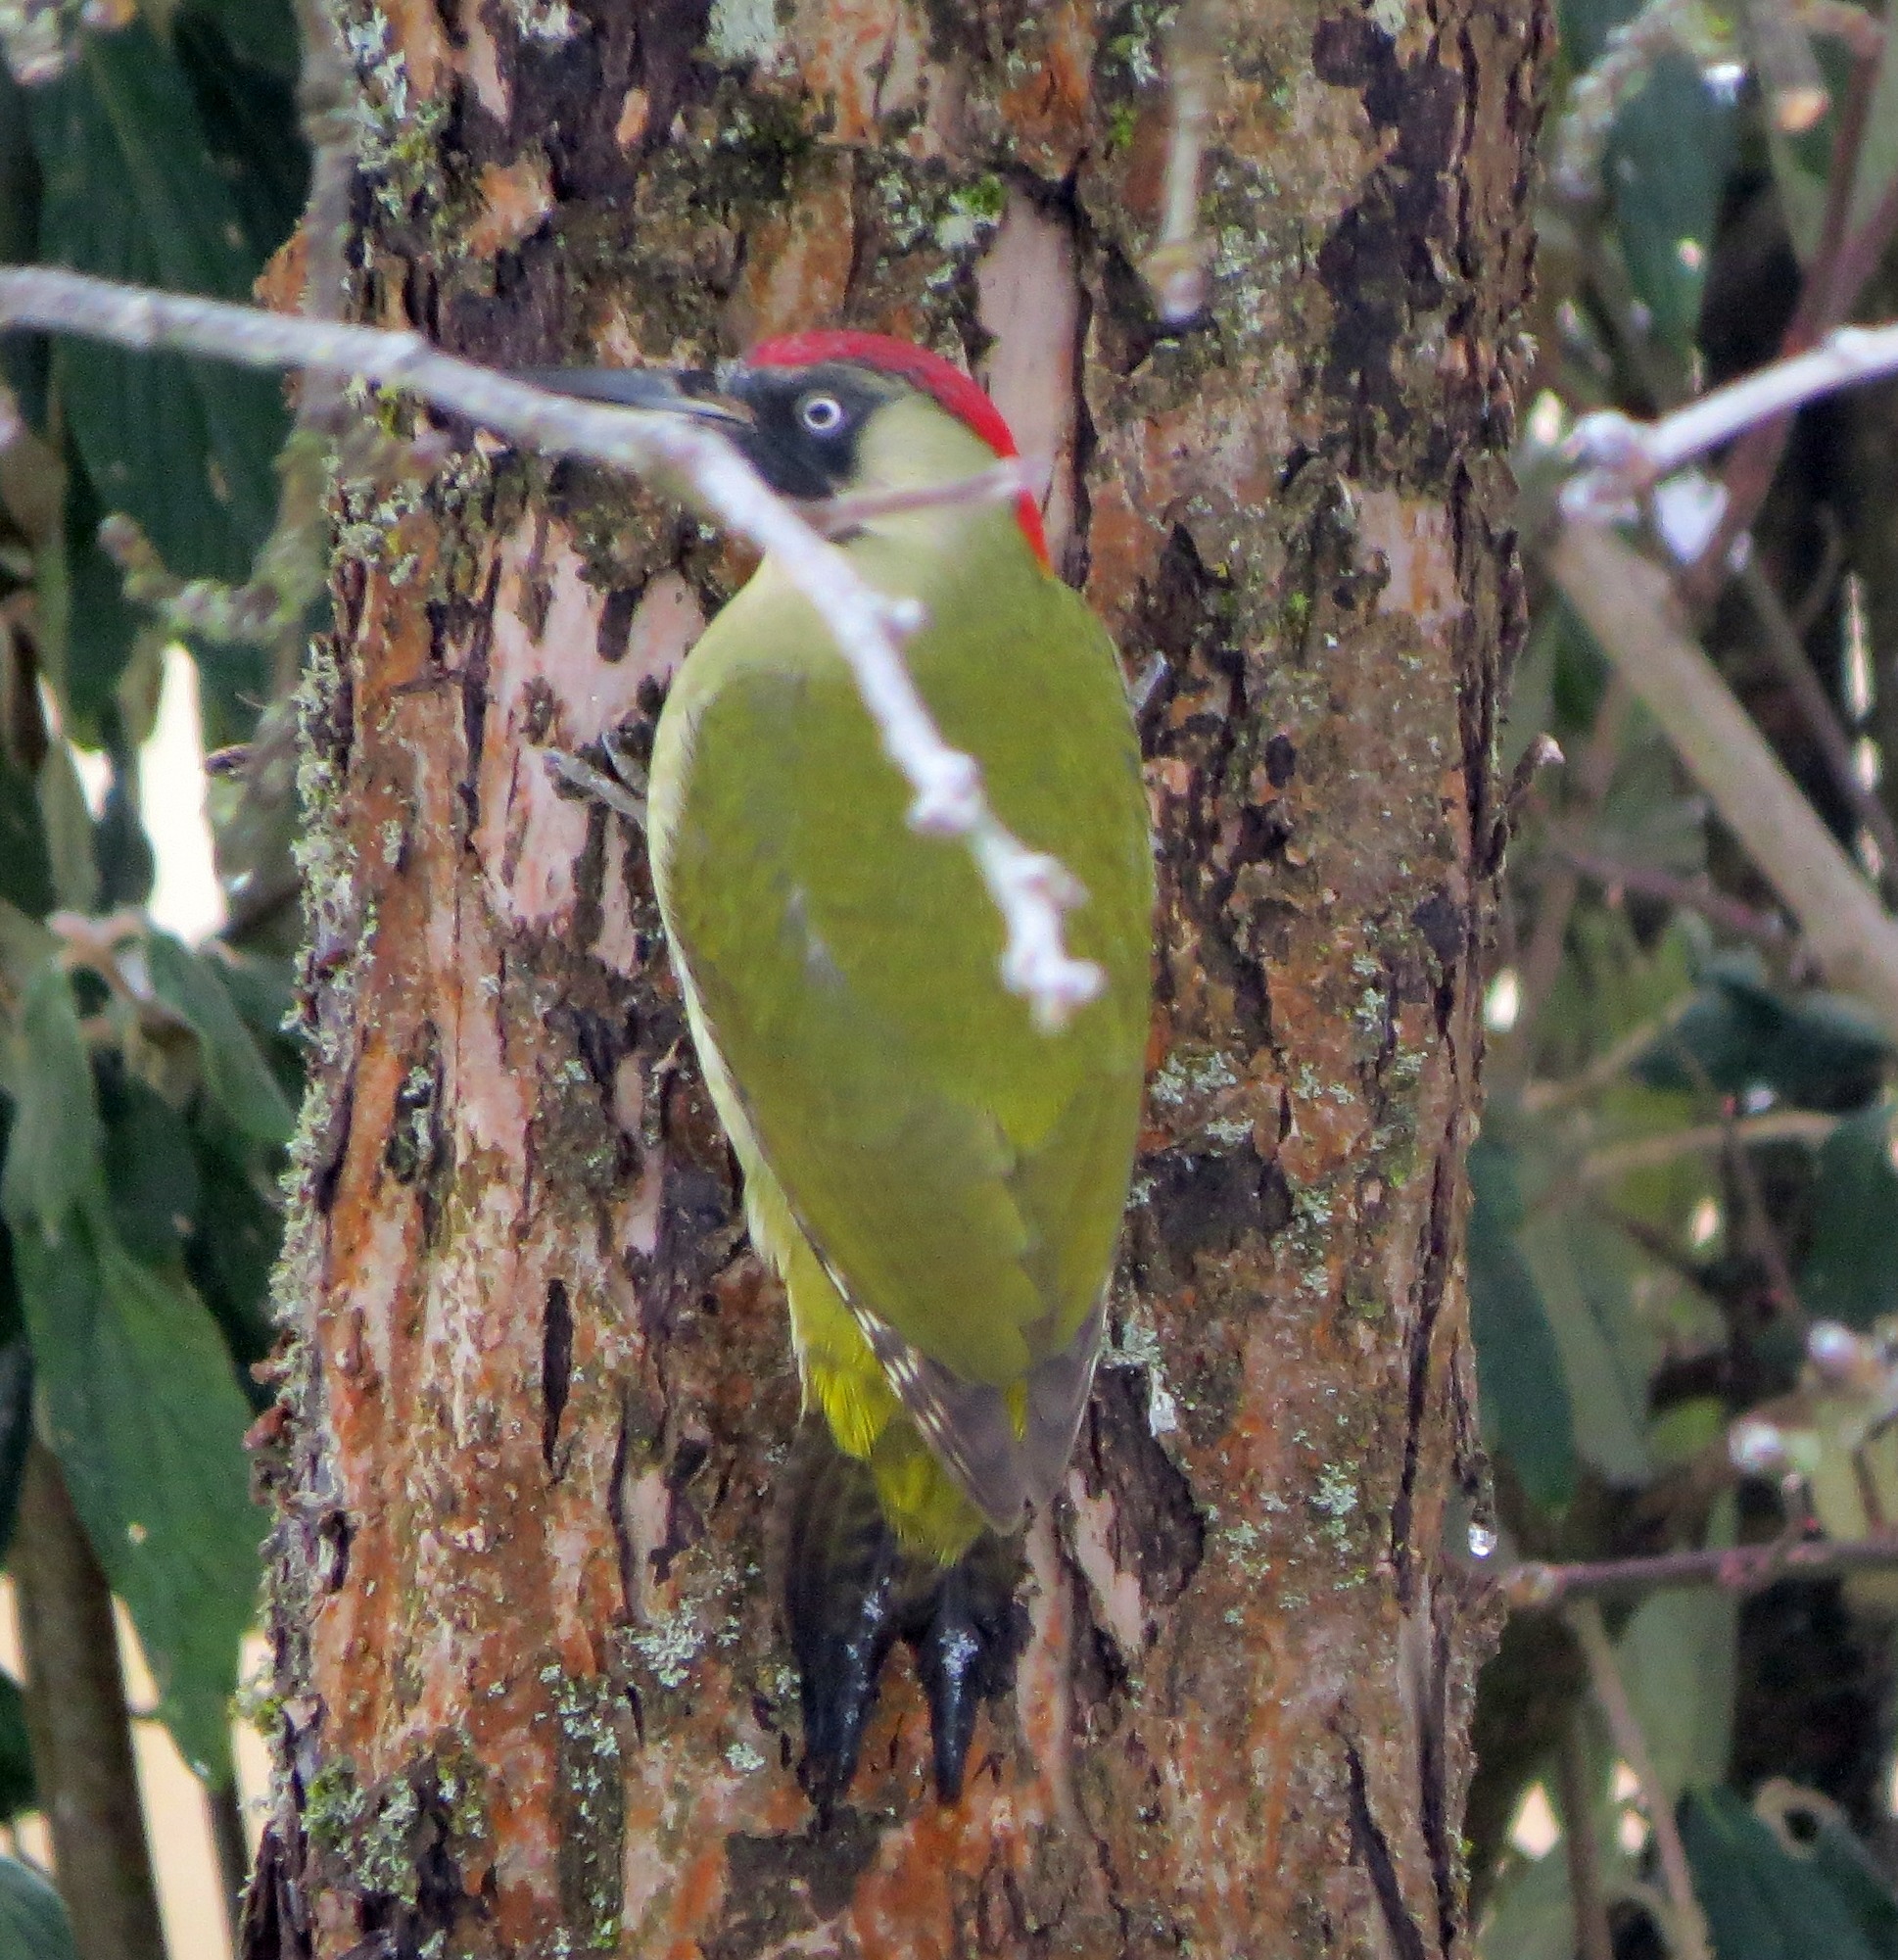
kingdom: Animalia
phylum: Chordata
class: Aves
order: Piciformes
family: Picidae
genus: Picus
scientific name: Picus viridis
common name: European green woodpecker
